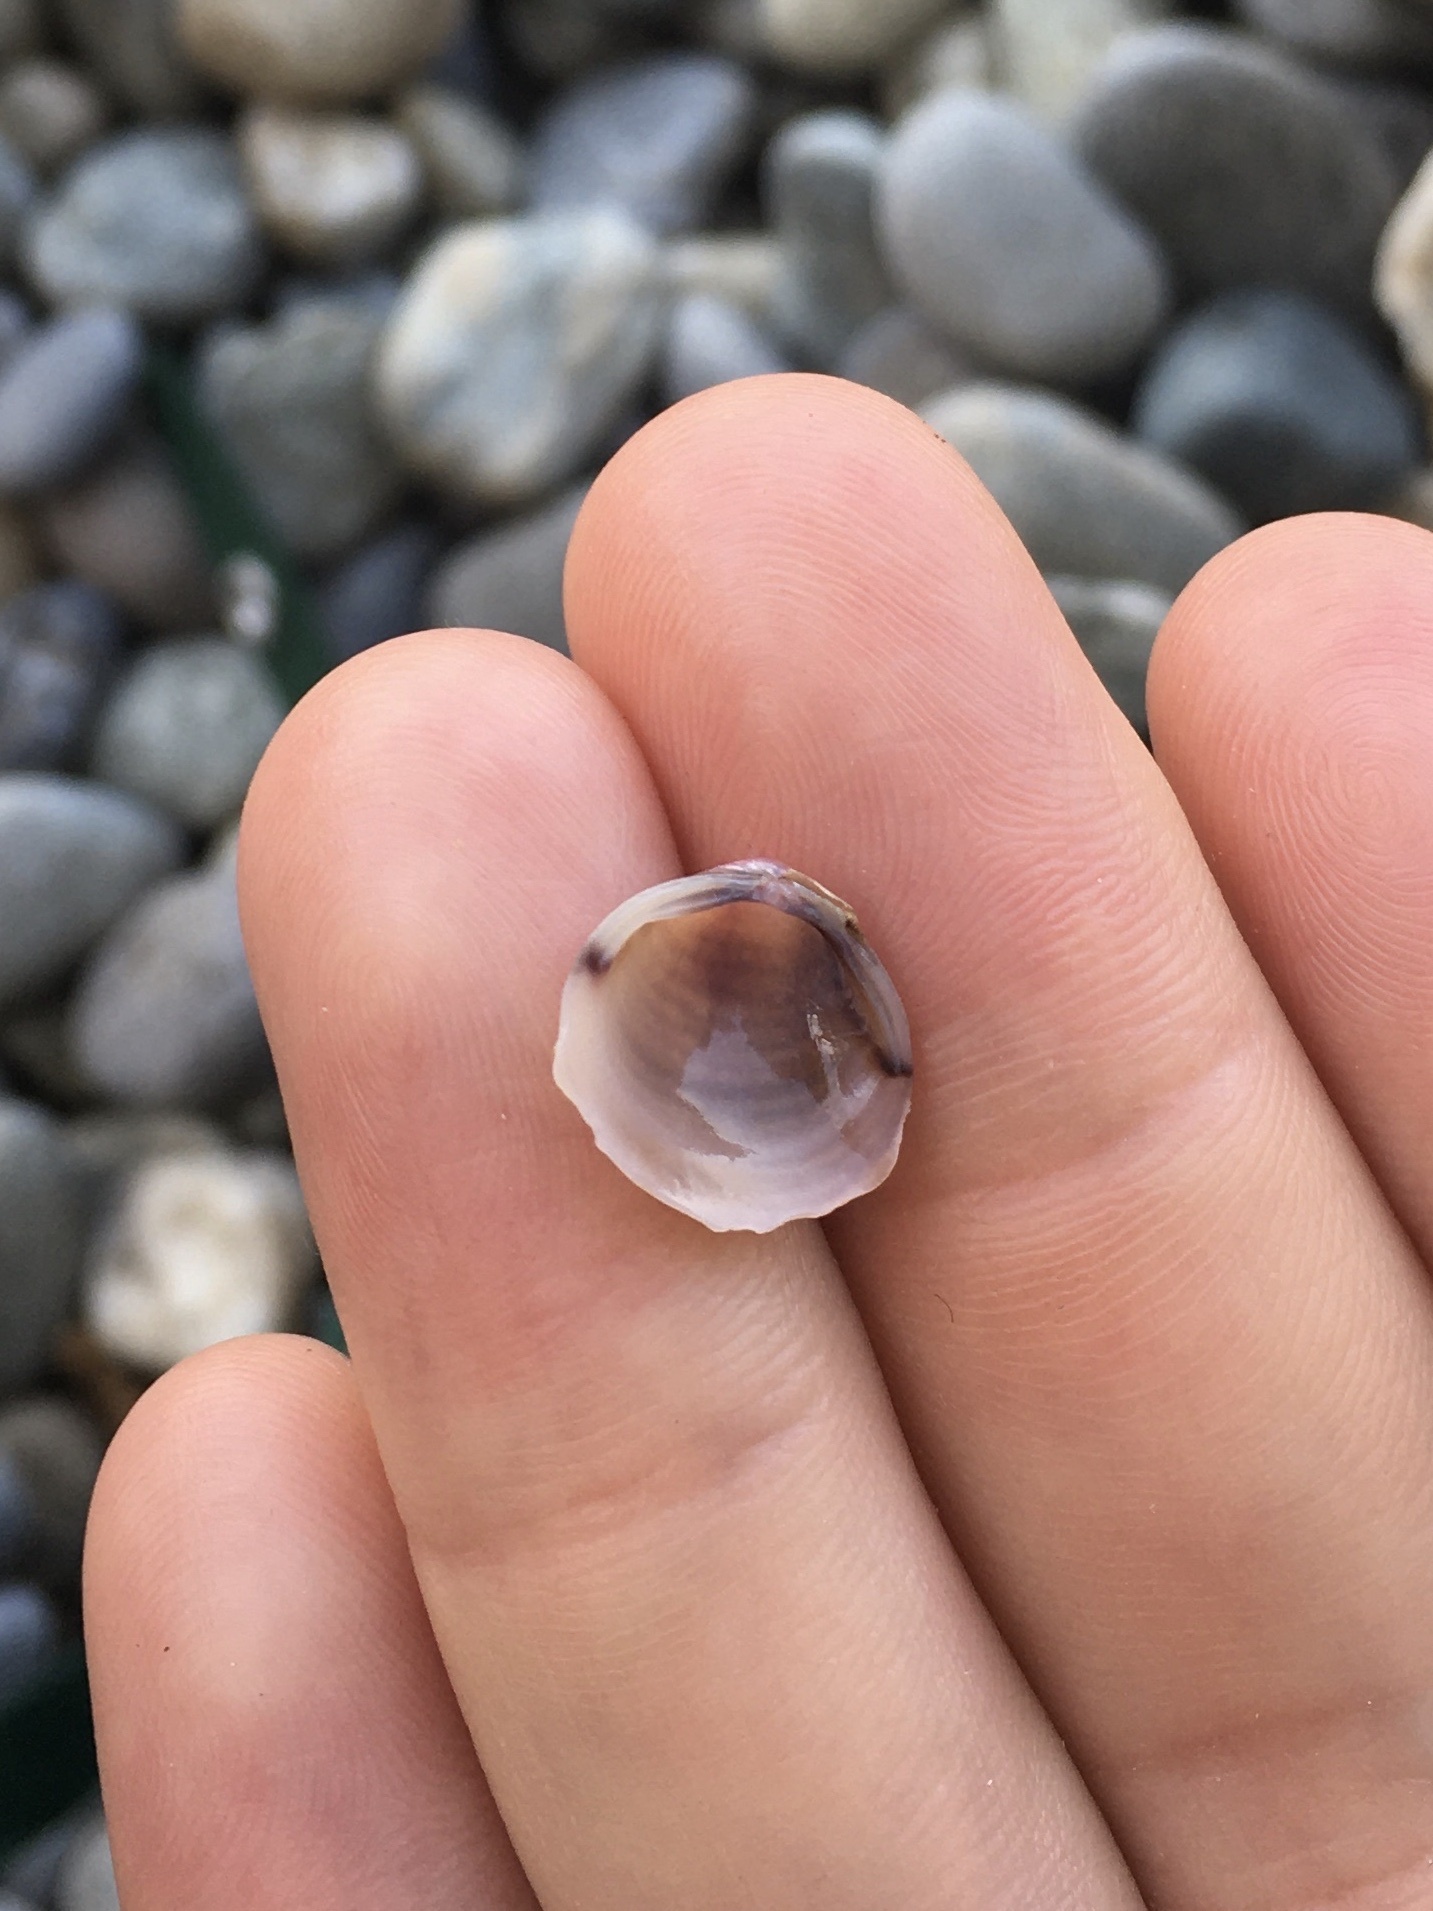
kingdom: Animalia
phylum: Mollusca
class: Bivalvia
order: Venerida
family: Cyrenidae
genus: Corbicula
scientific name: Corbicula fluminea
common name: Asian clam
